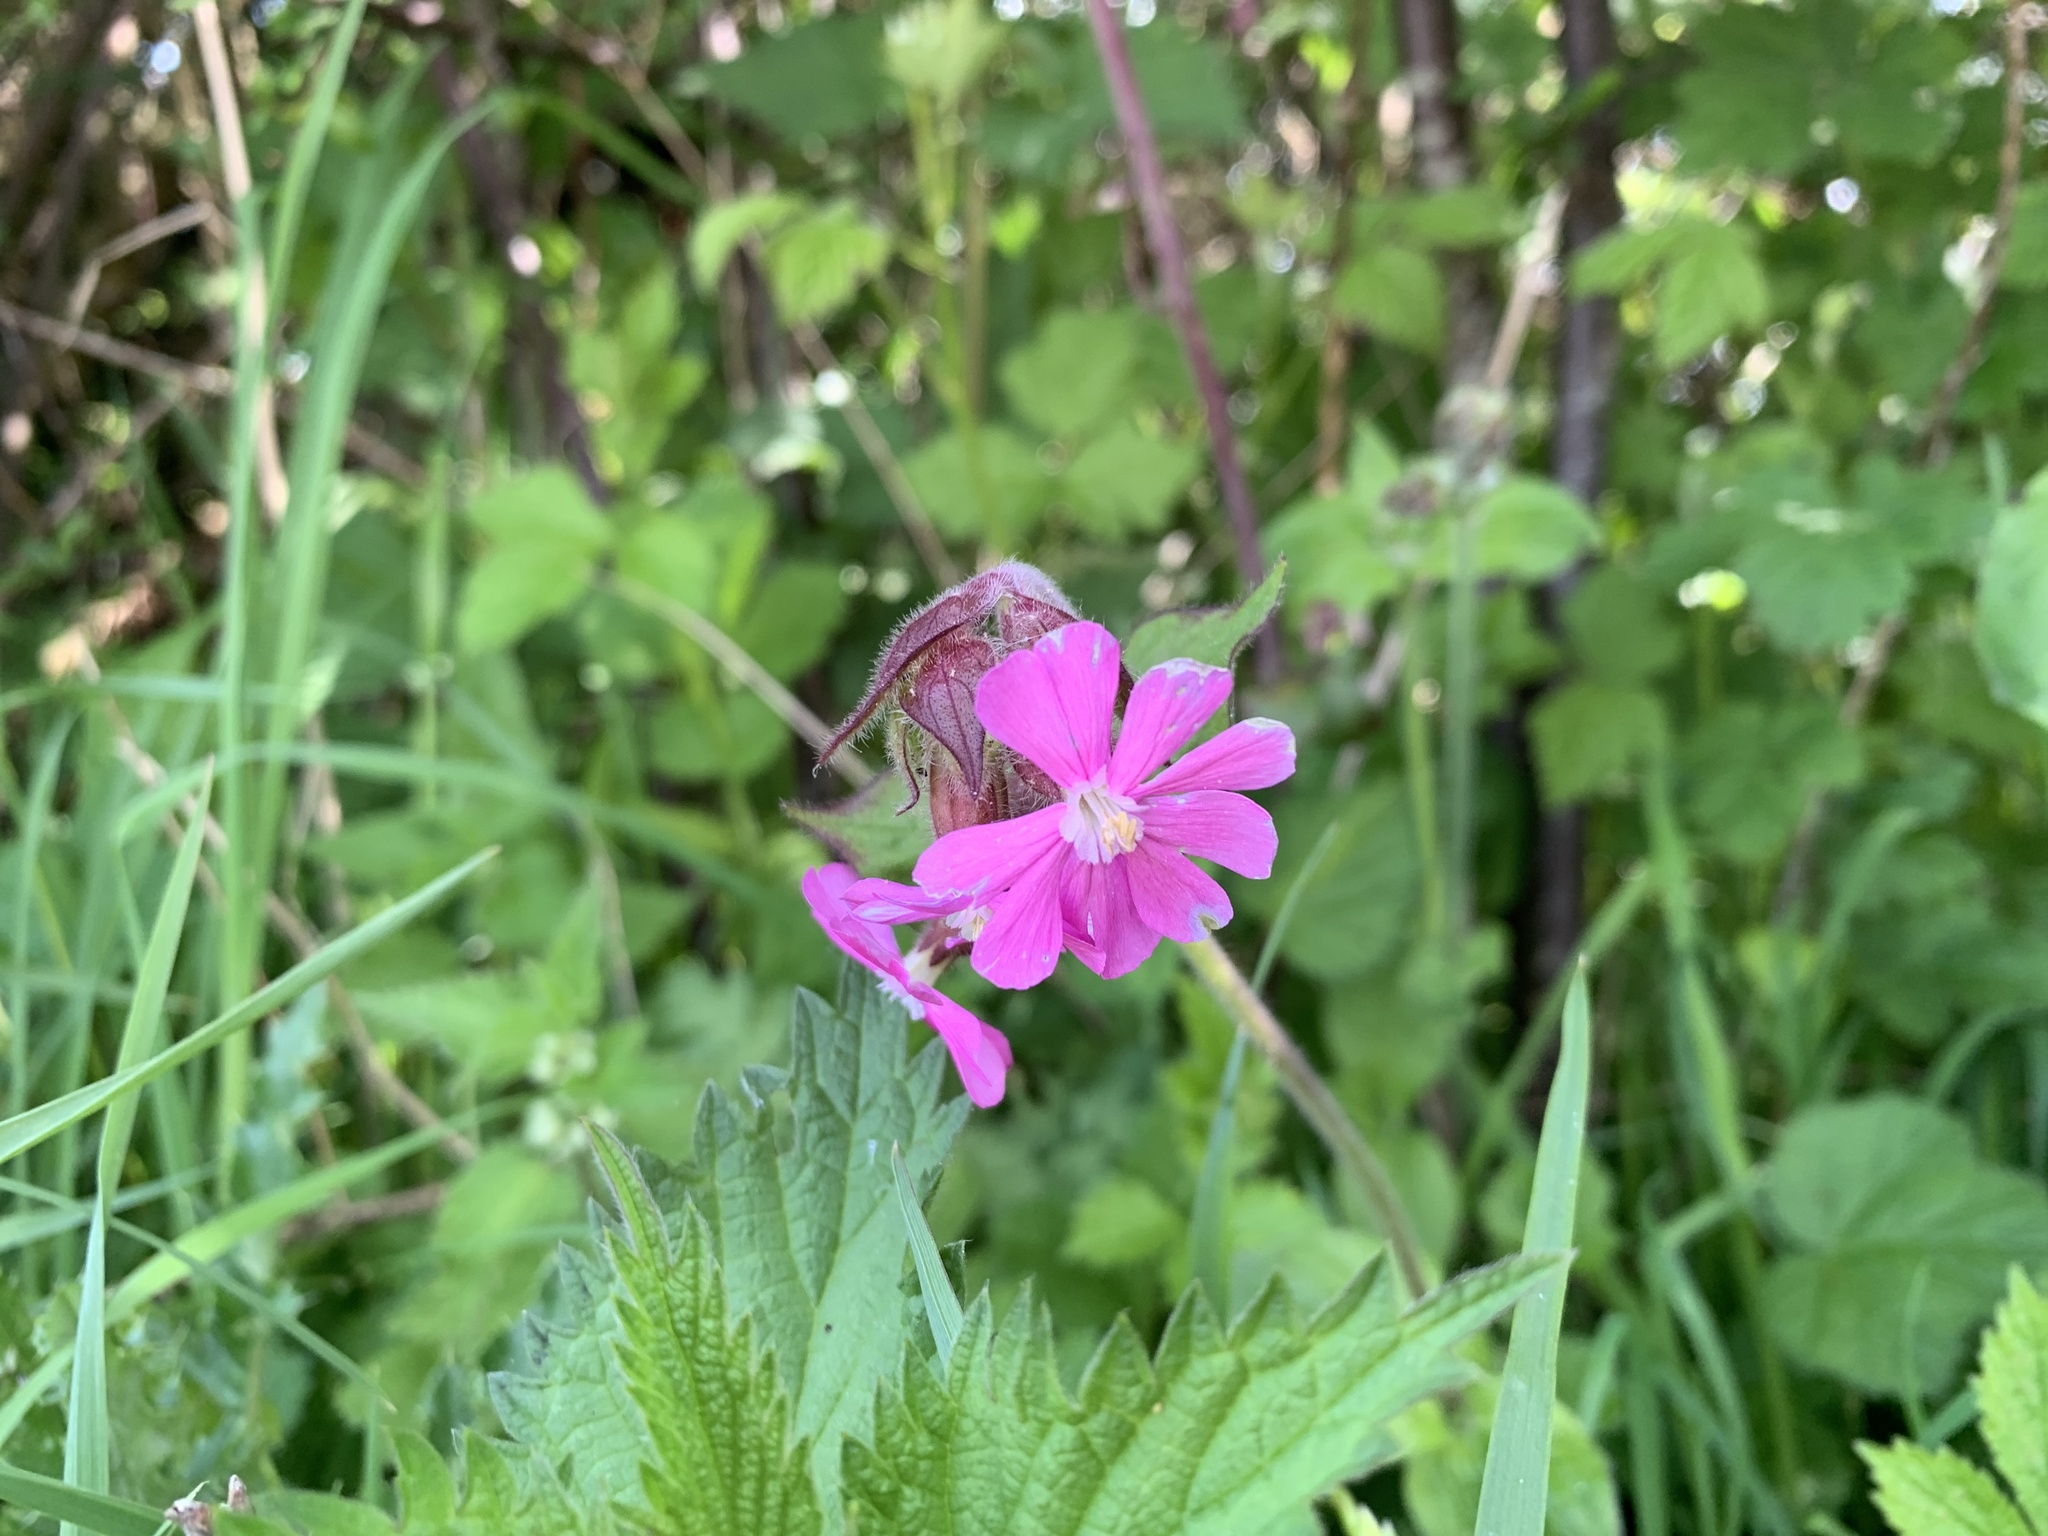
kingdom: Plantae
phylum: Tracheophyta
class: Magnoliopsida
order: Caryophyllales
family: Caryophyllaceae
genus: Silene
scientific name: Silene dioica
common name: Red campion
